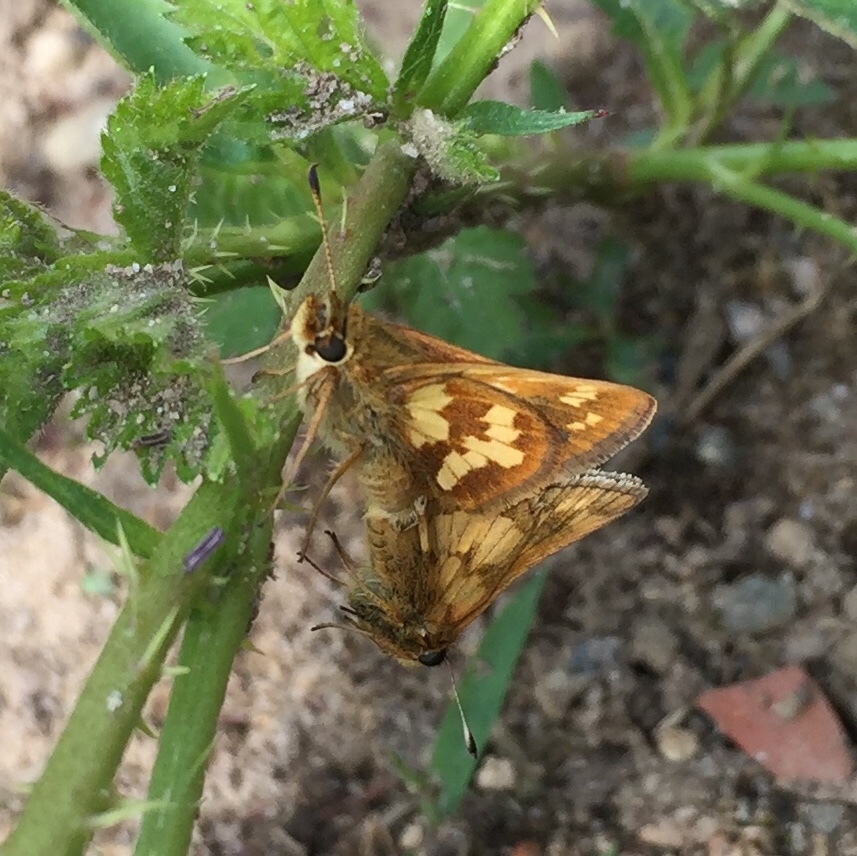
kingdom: Animalia
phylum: Arthropoda
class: Insecta
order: Lepidoptera
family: Hesperiidae
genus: Polites
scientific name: Polites coras
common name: Peck's skipper
